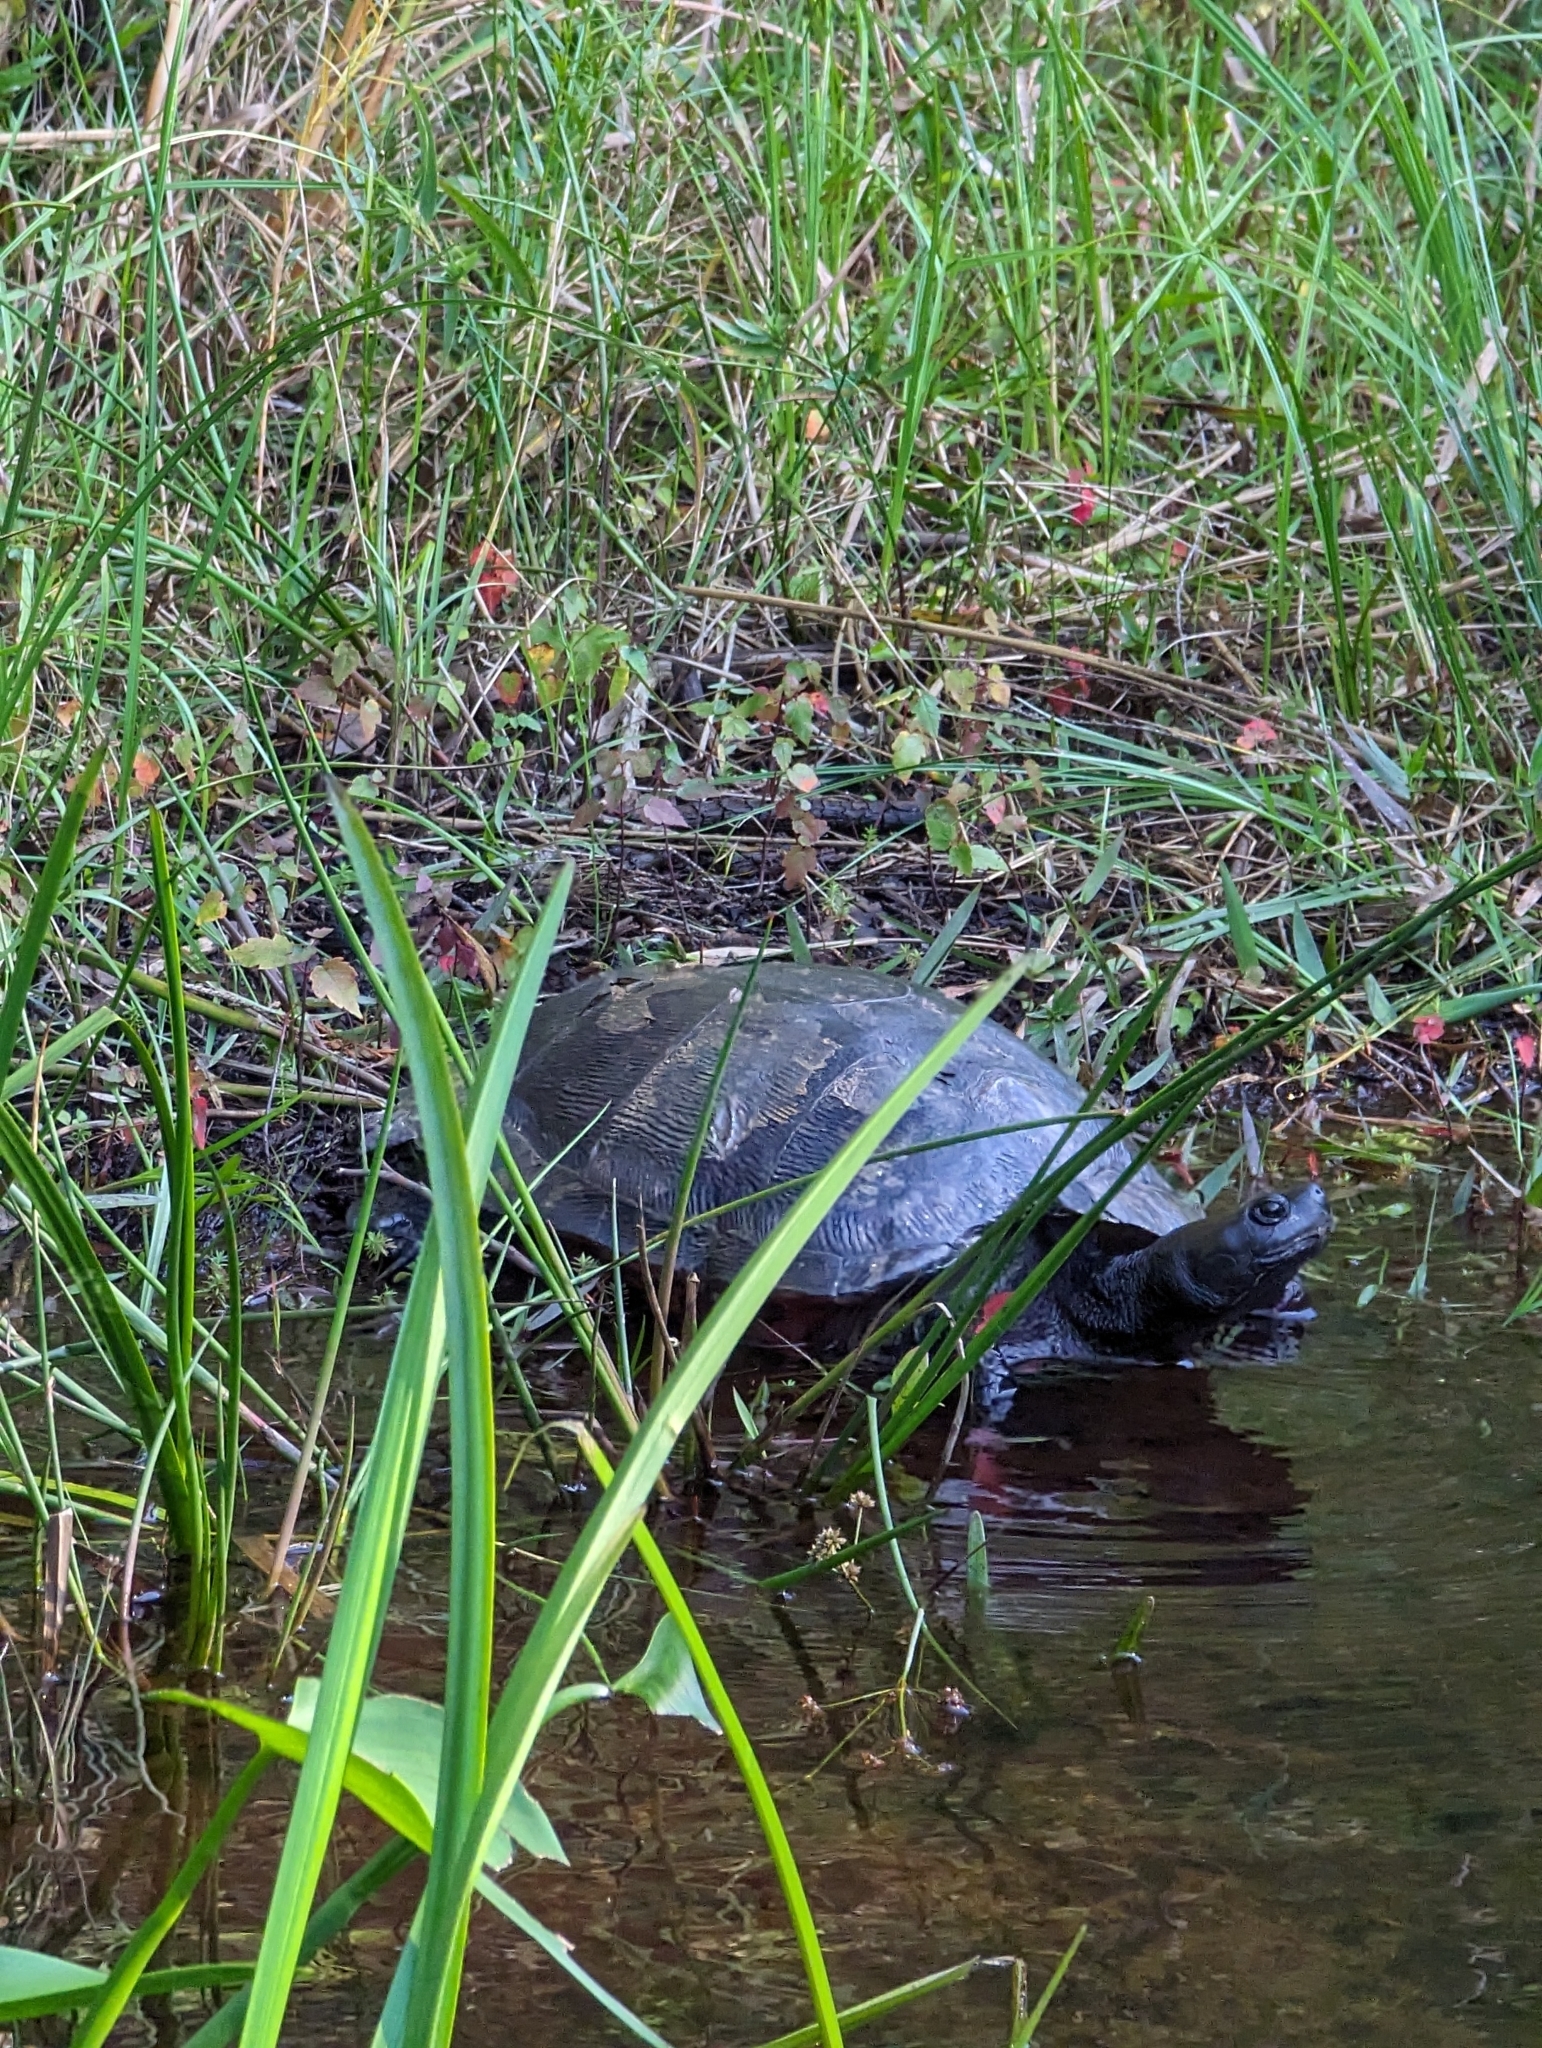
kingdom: Animalia
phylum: Chordata
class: Testudines
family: Emydidae
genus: Pseudemys
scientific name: Pseudemys rubriventris
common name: American red-bellied turtle
